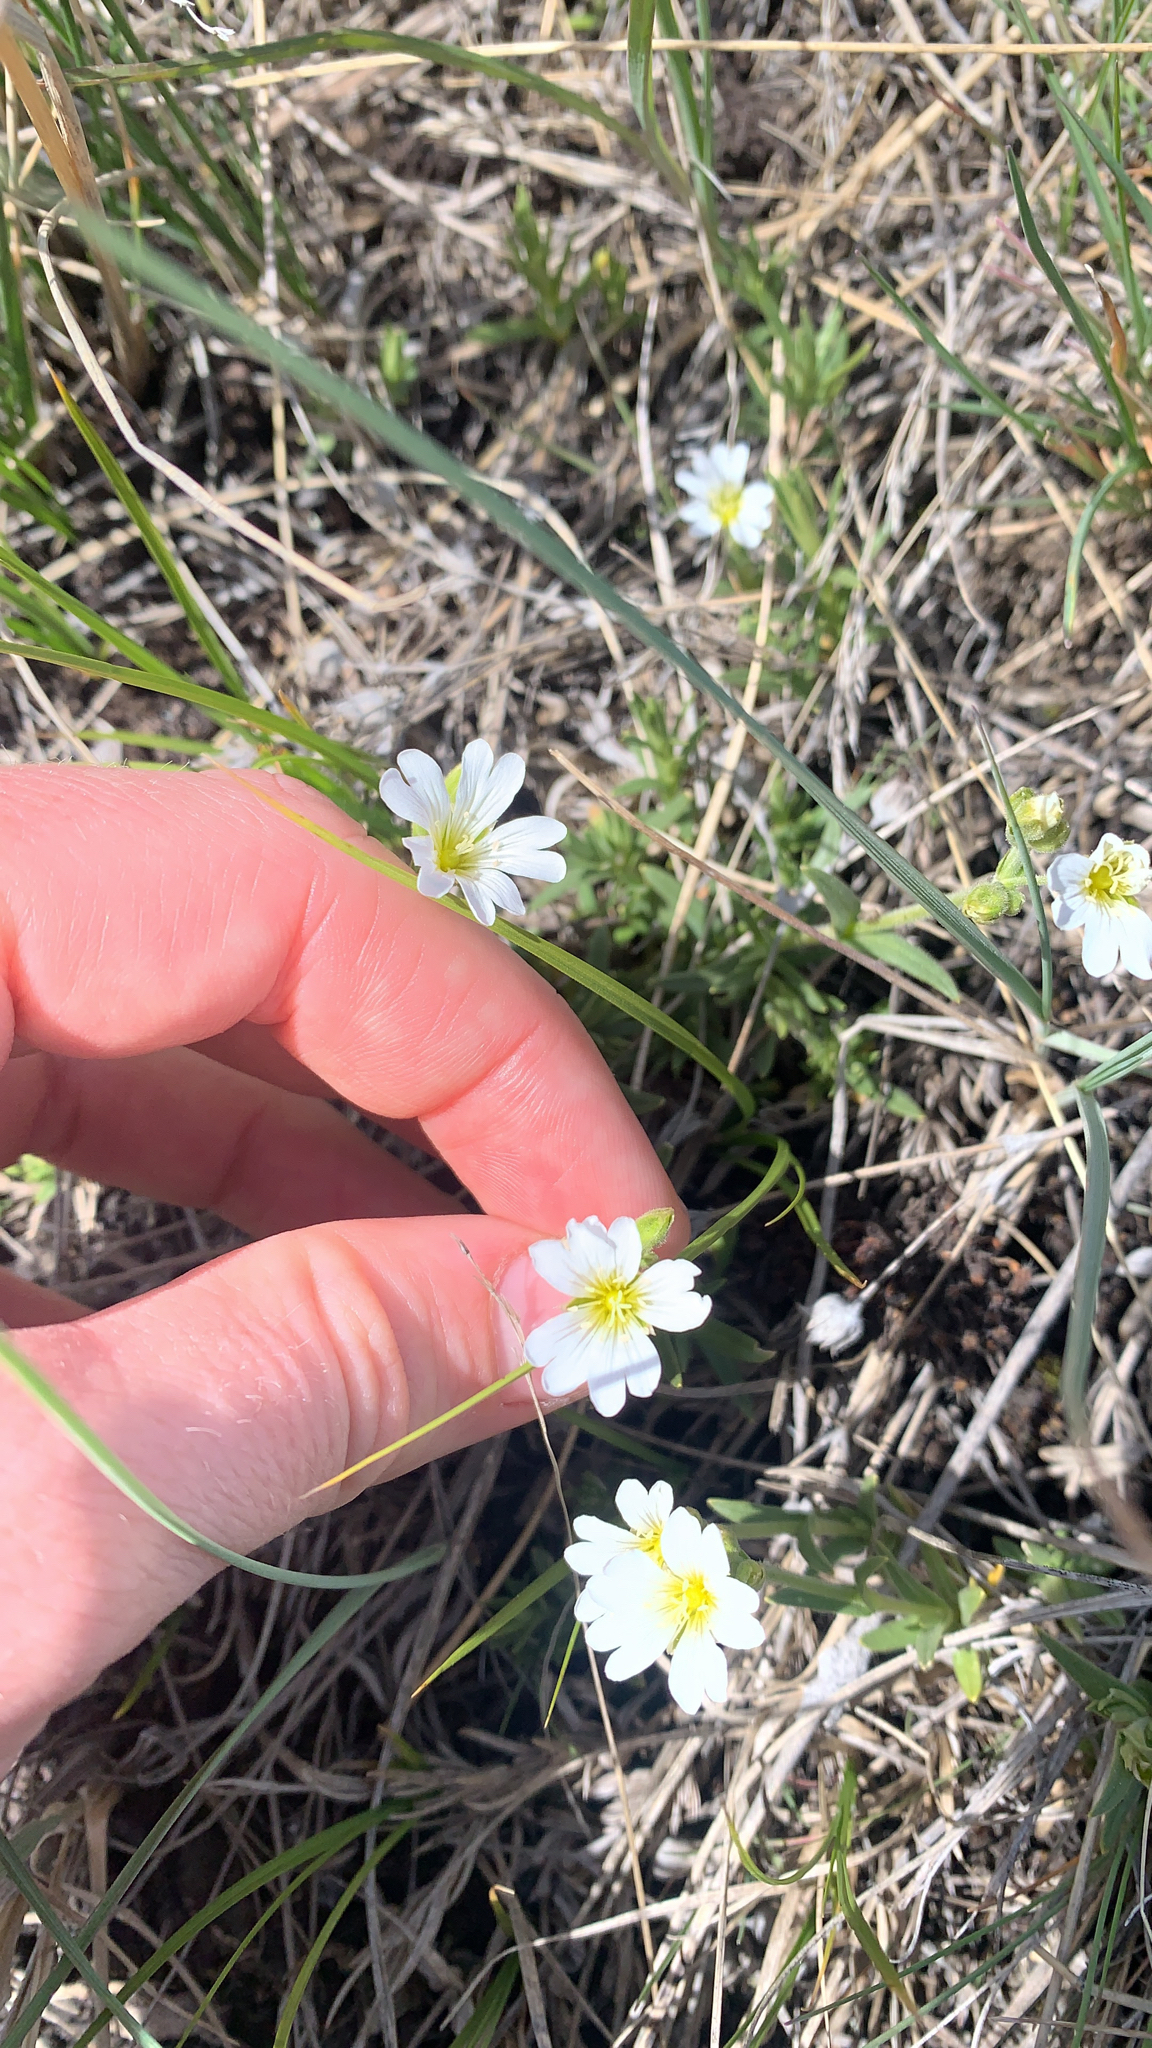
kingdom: Plantae
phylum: Tracheophyta
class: Magnoliopsida
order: Caryophyllales
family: Caryophyllaceae
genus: Cerastium
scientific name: Cerastium arvense
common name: Field mouse-ear
